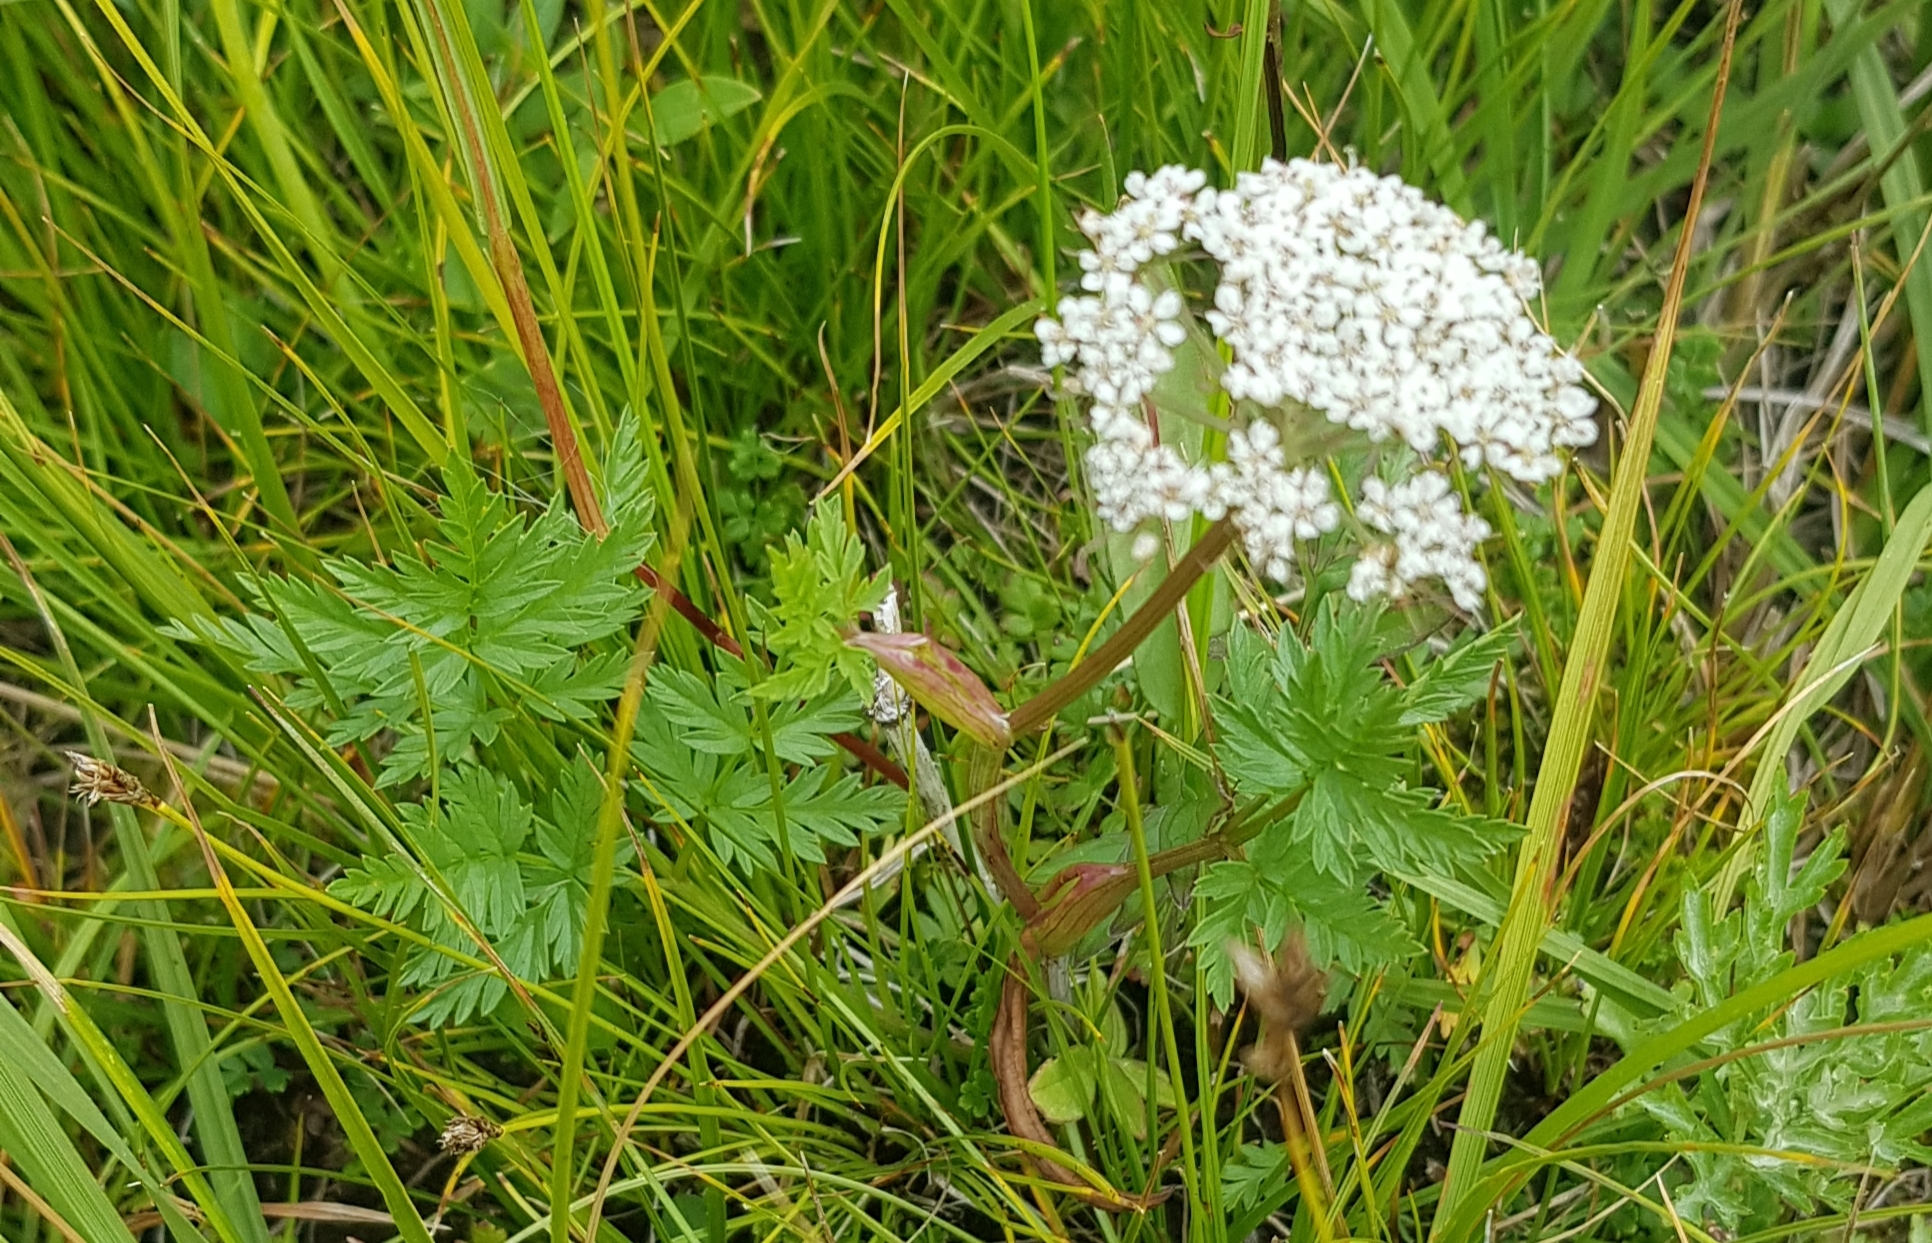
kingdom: Plantae
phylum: Tracheophyta
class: Magnoliopsida
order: Apiales
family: Apiaceae
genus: Conioselinum
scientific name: Conioselinum tataricum
